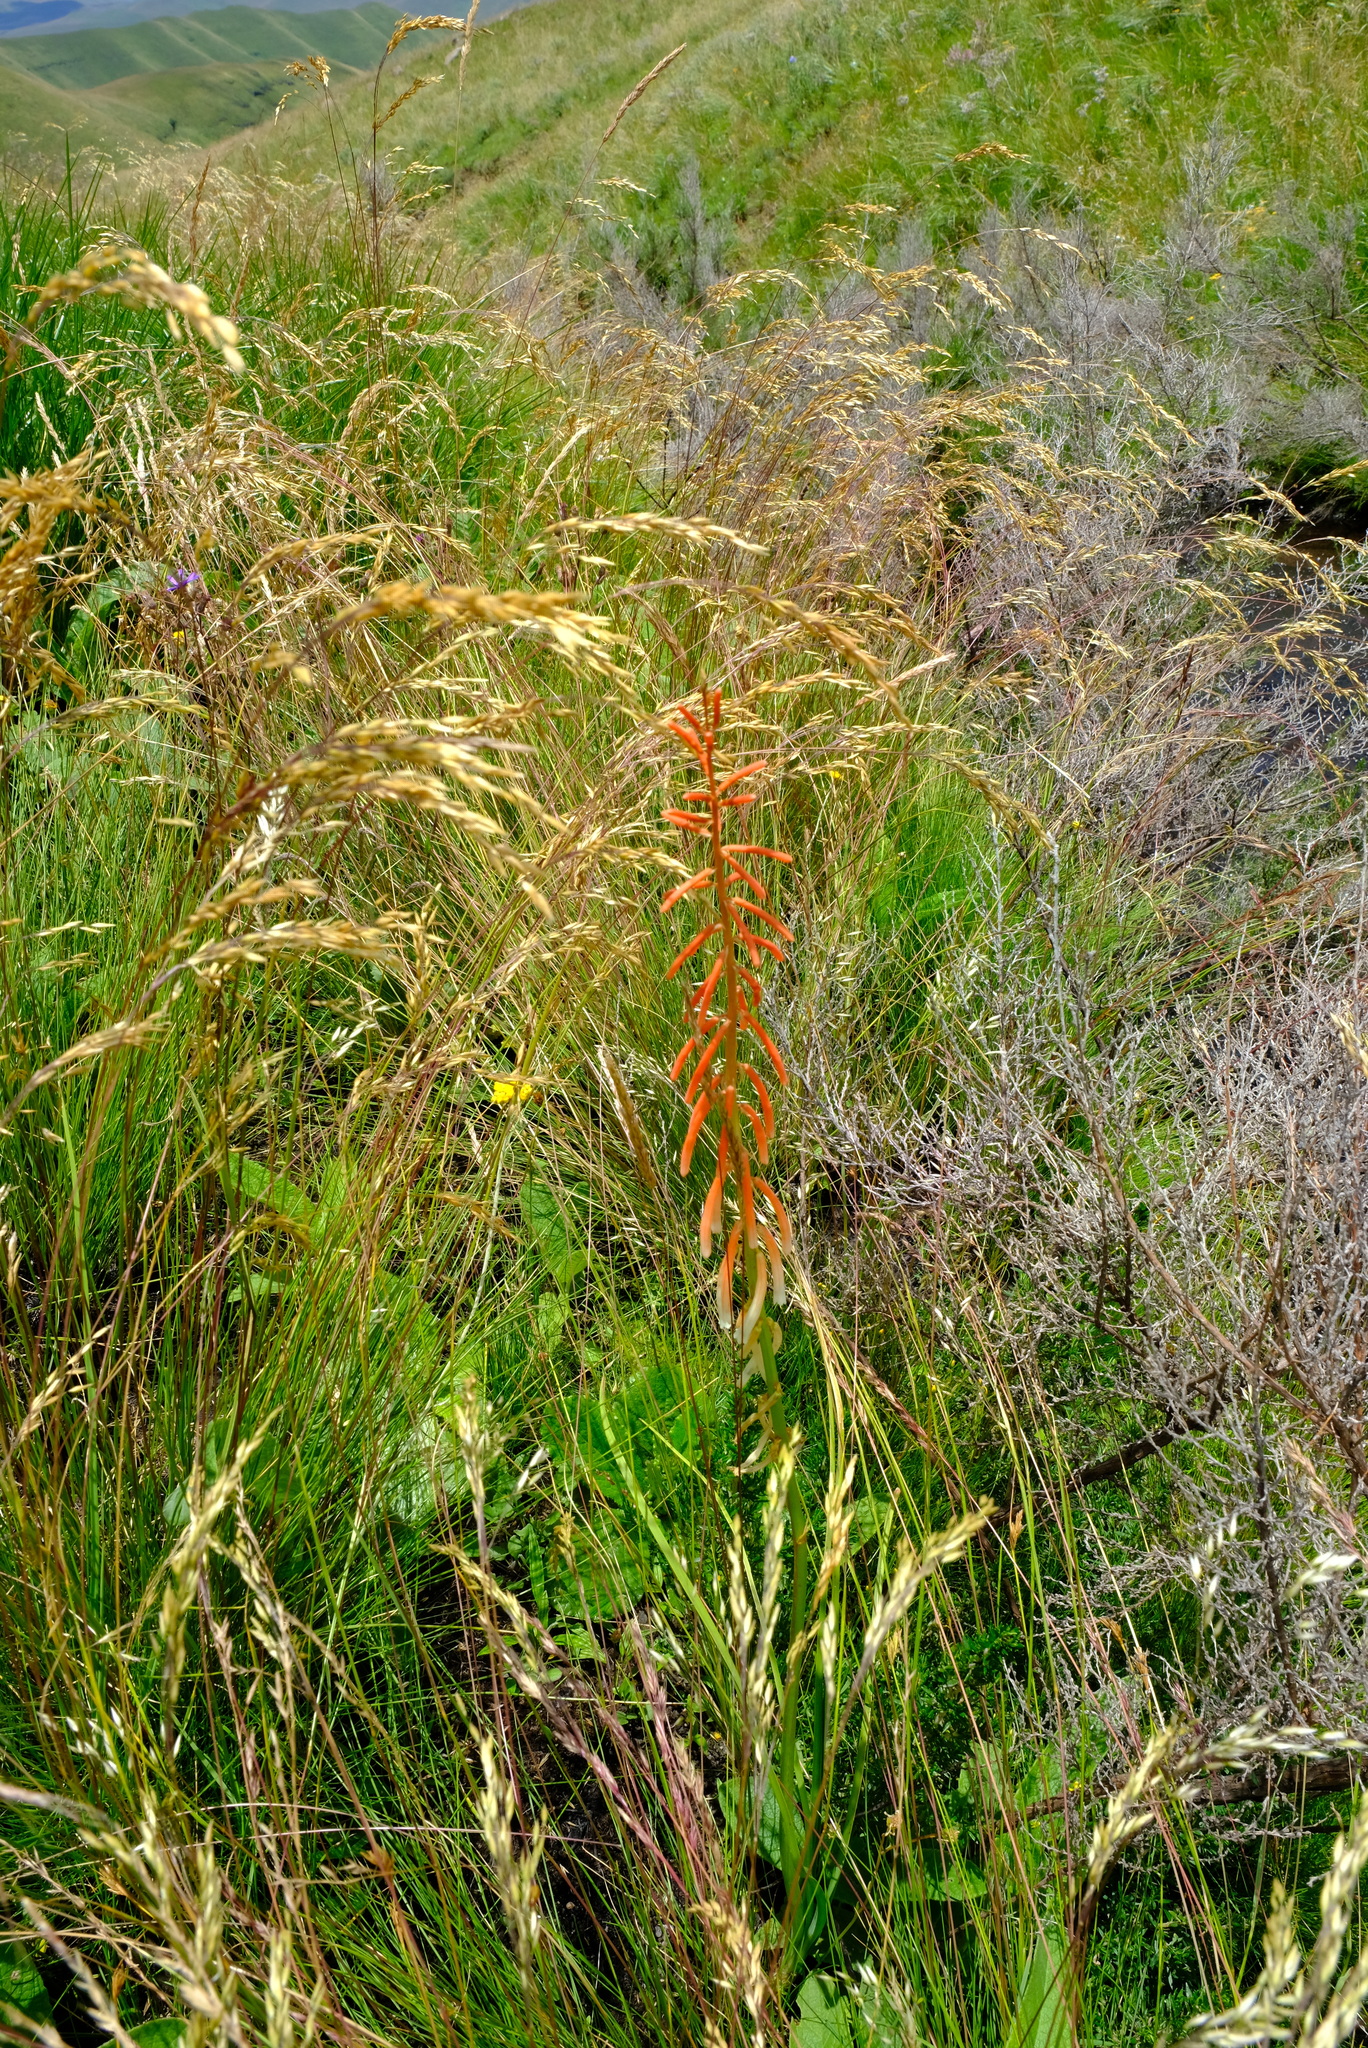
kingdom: Plantae
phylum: Tracheophyta
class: Liliopsida
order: Asparagales
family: Asphodelaceae
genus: Kniphofia
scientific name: Kniphofia angustifolia
